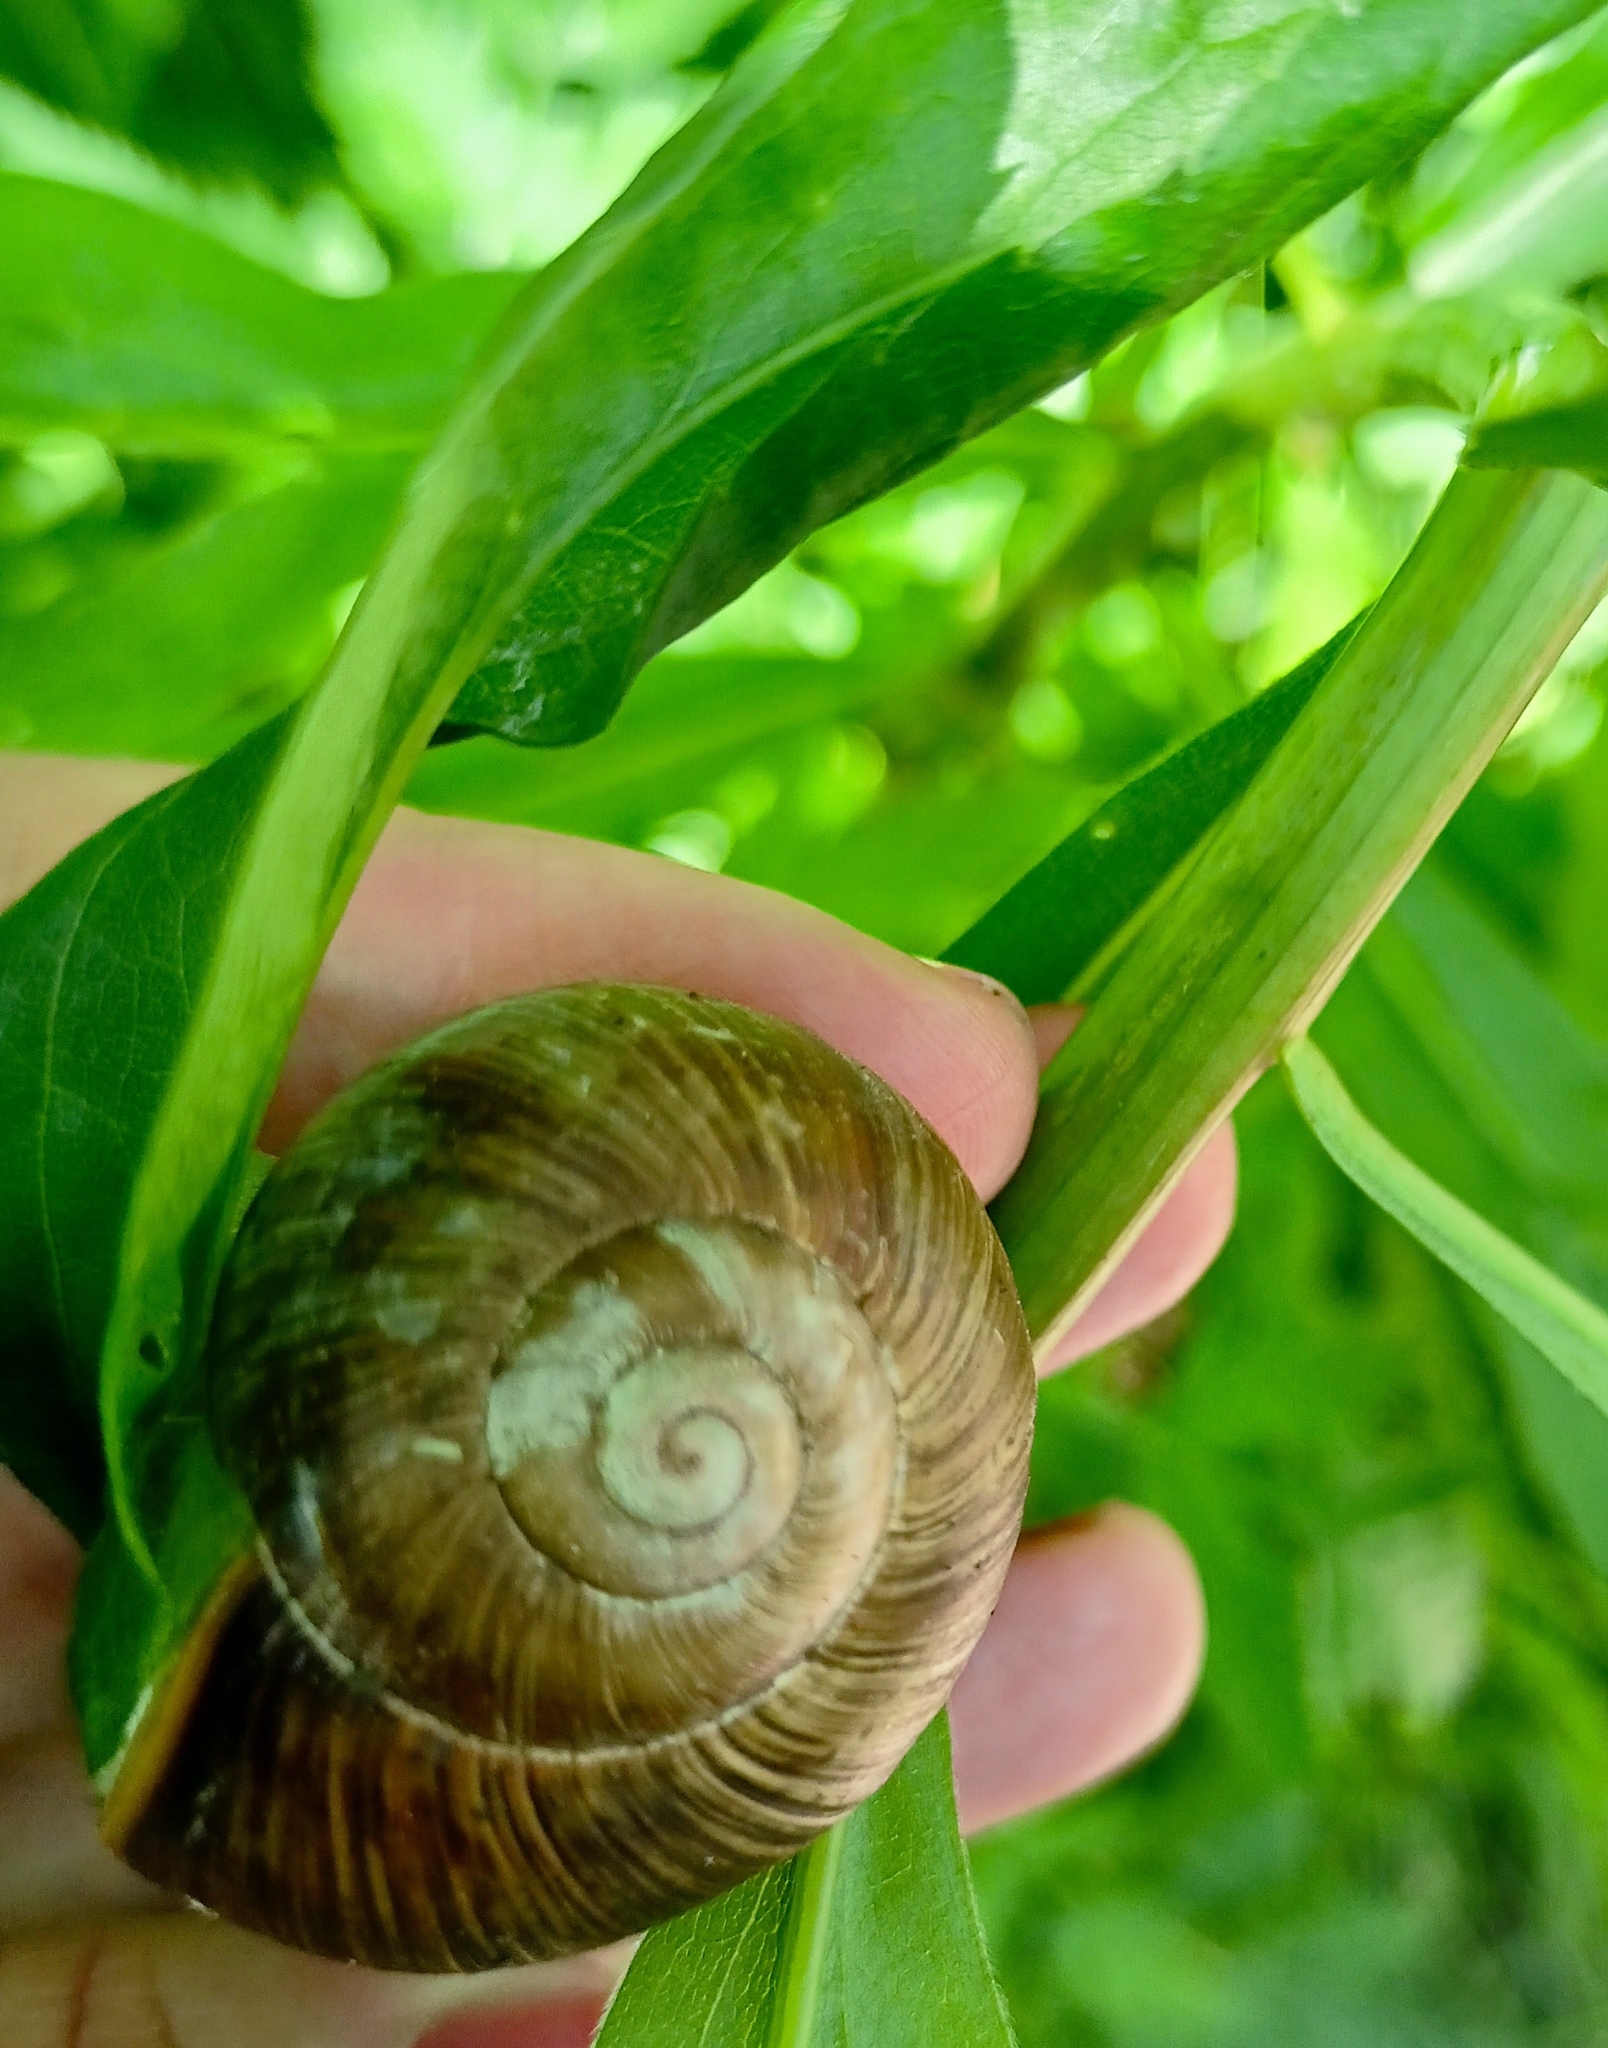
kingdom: Animalia
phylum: Mollusca
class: Gastropoda
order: Stylommatophora
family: Helicidae
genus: Helix
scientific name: Helix pomatia
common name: Roman snail
